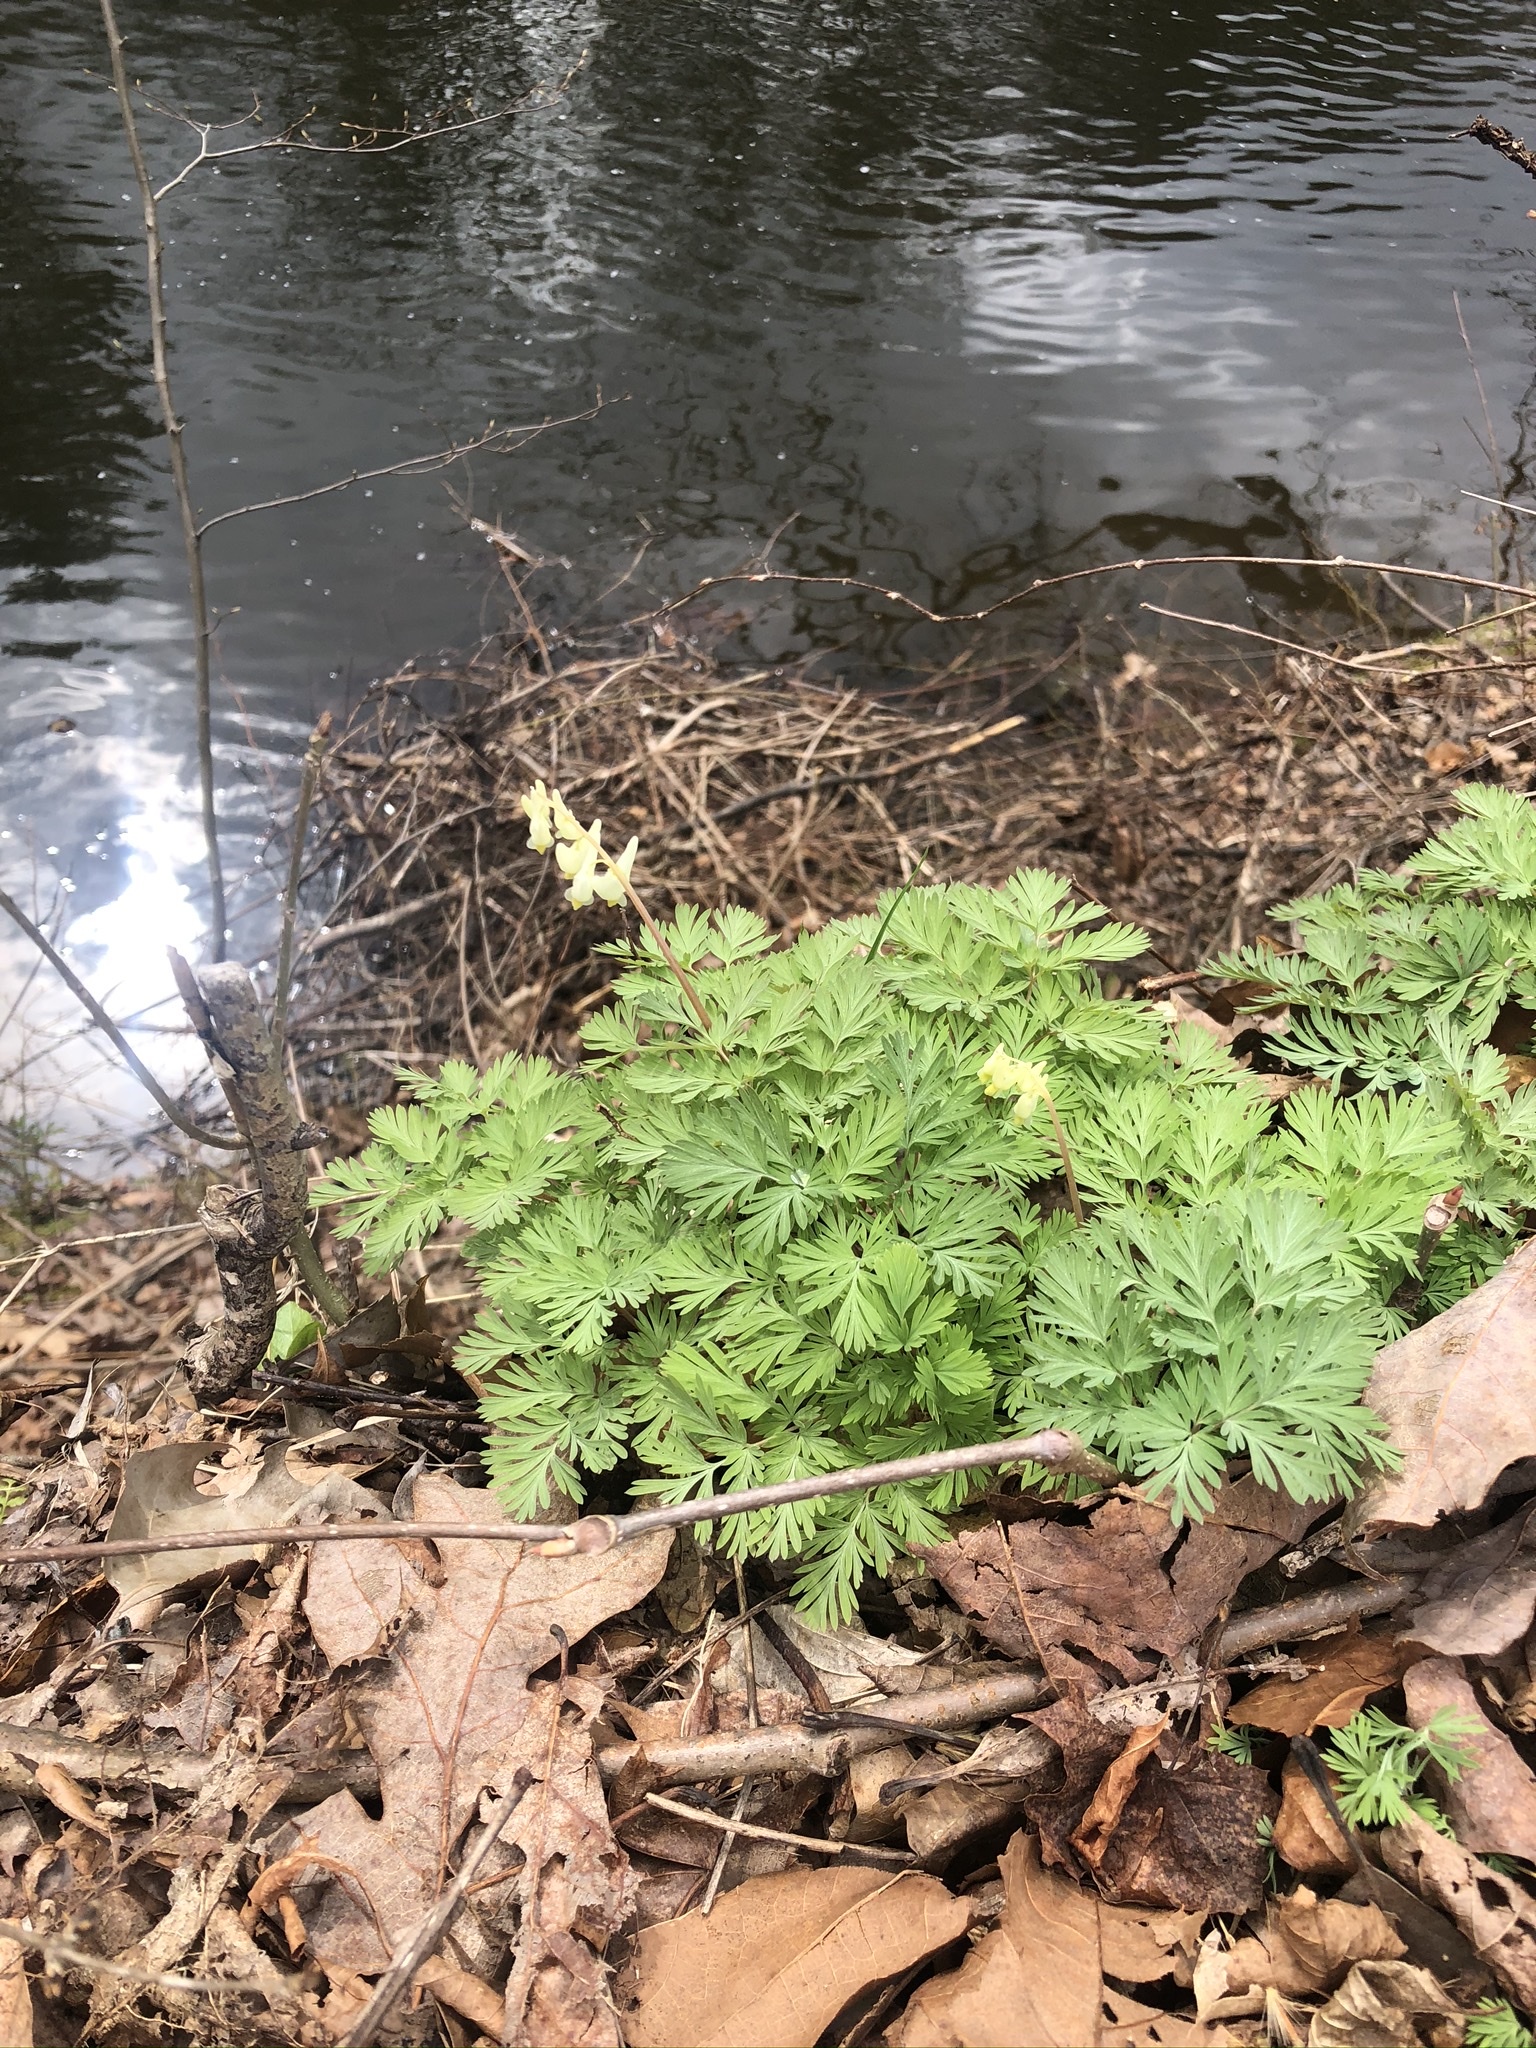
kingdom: Plantae
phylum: Tracheophyta
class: Magnoliopsida
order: Ranunculales
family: Papaveraceae
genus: Dicentra
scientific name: Dicentra cucullaria
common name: Dutchman's breeches
